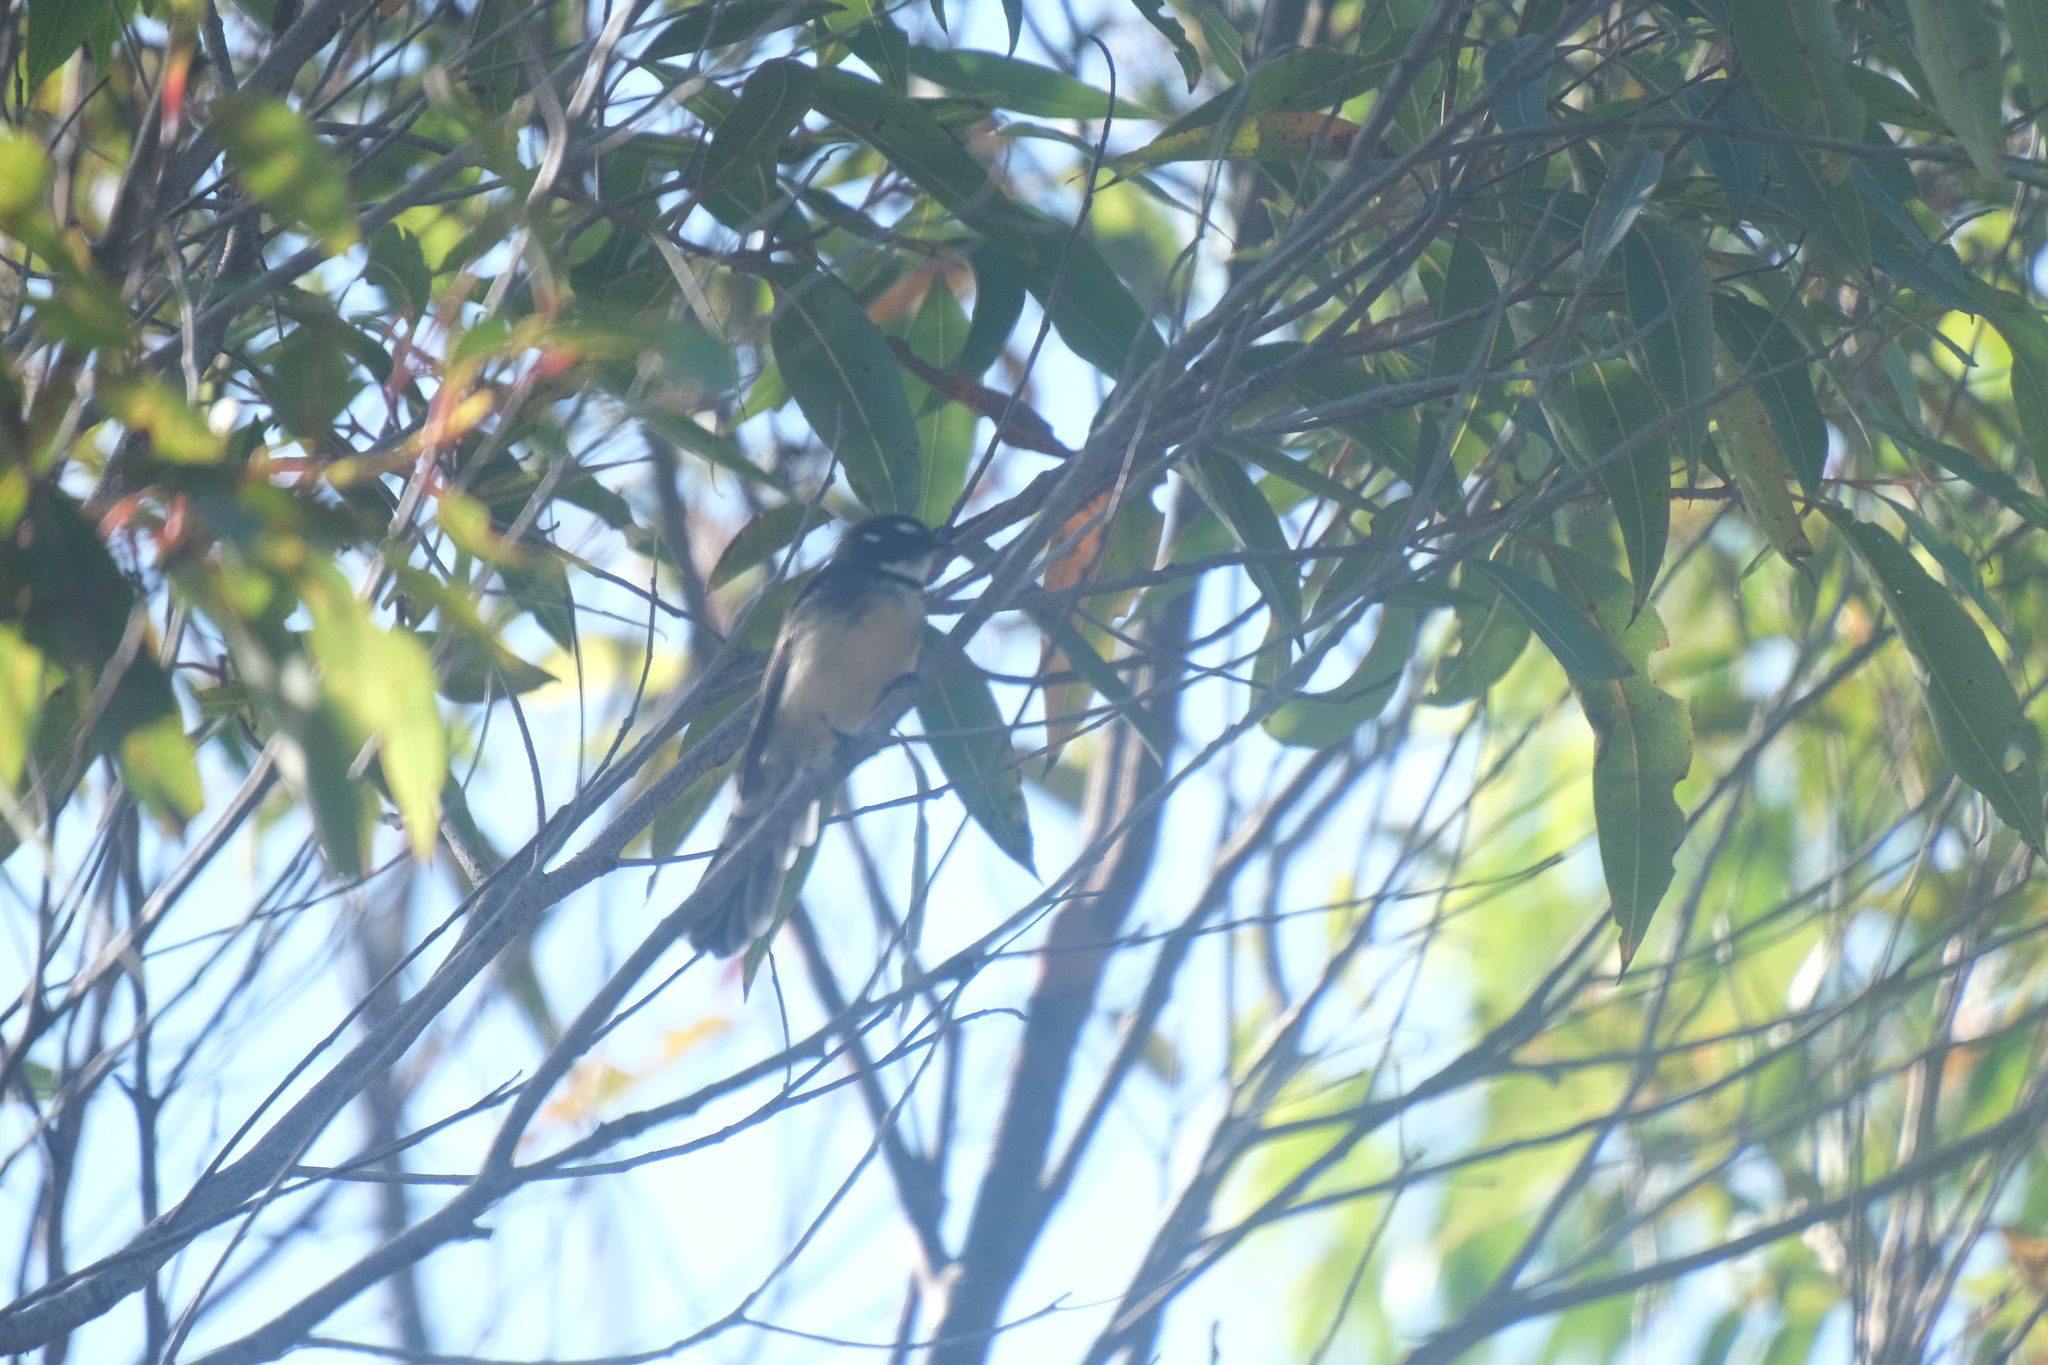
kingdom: Animalia
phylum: Chordata
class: Aves
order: Passeriformes
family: Rhipiduridae
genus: Rhipidura
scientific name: Rhipidura albiscapa
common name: Grey fantail
